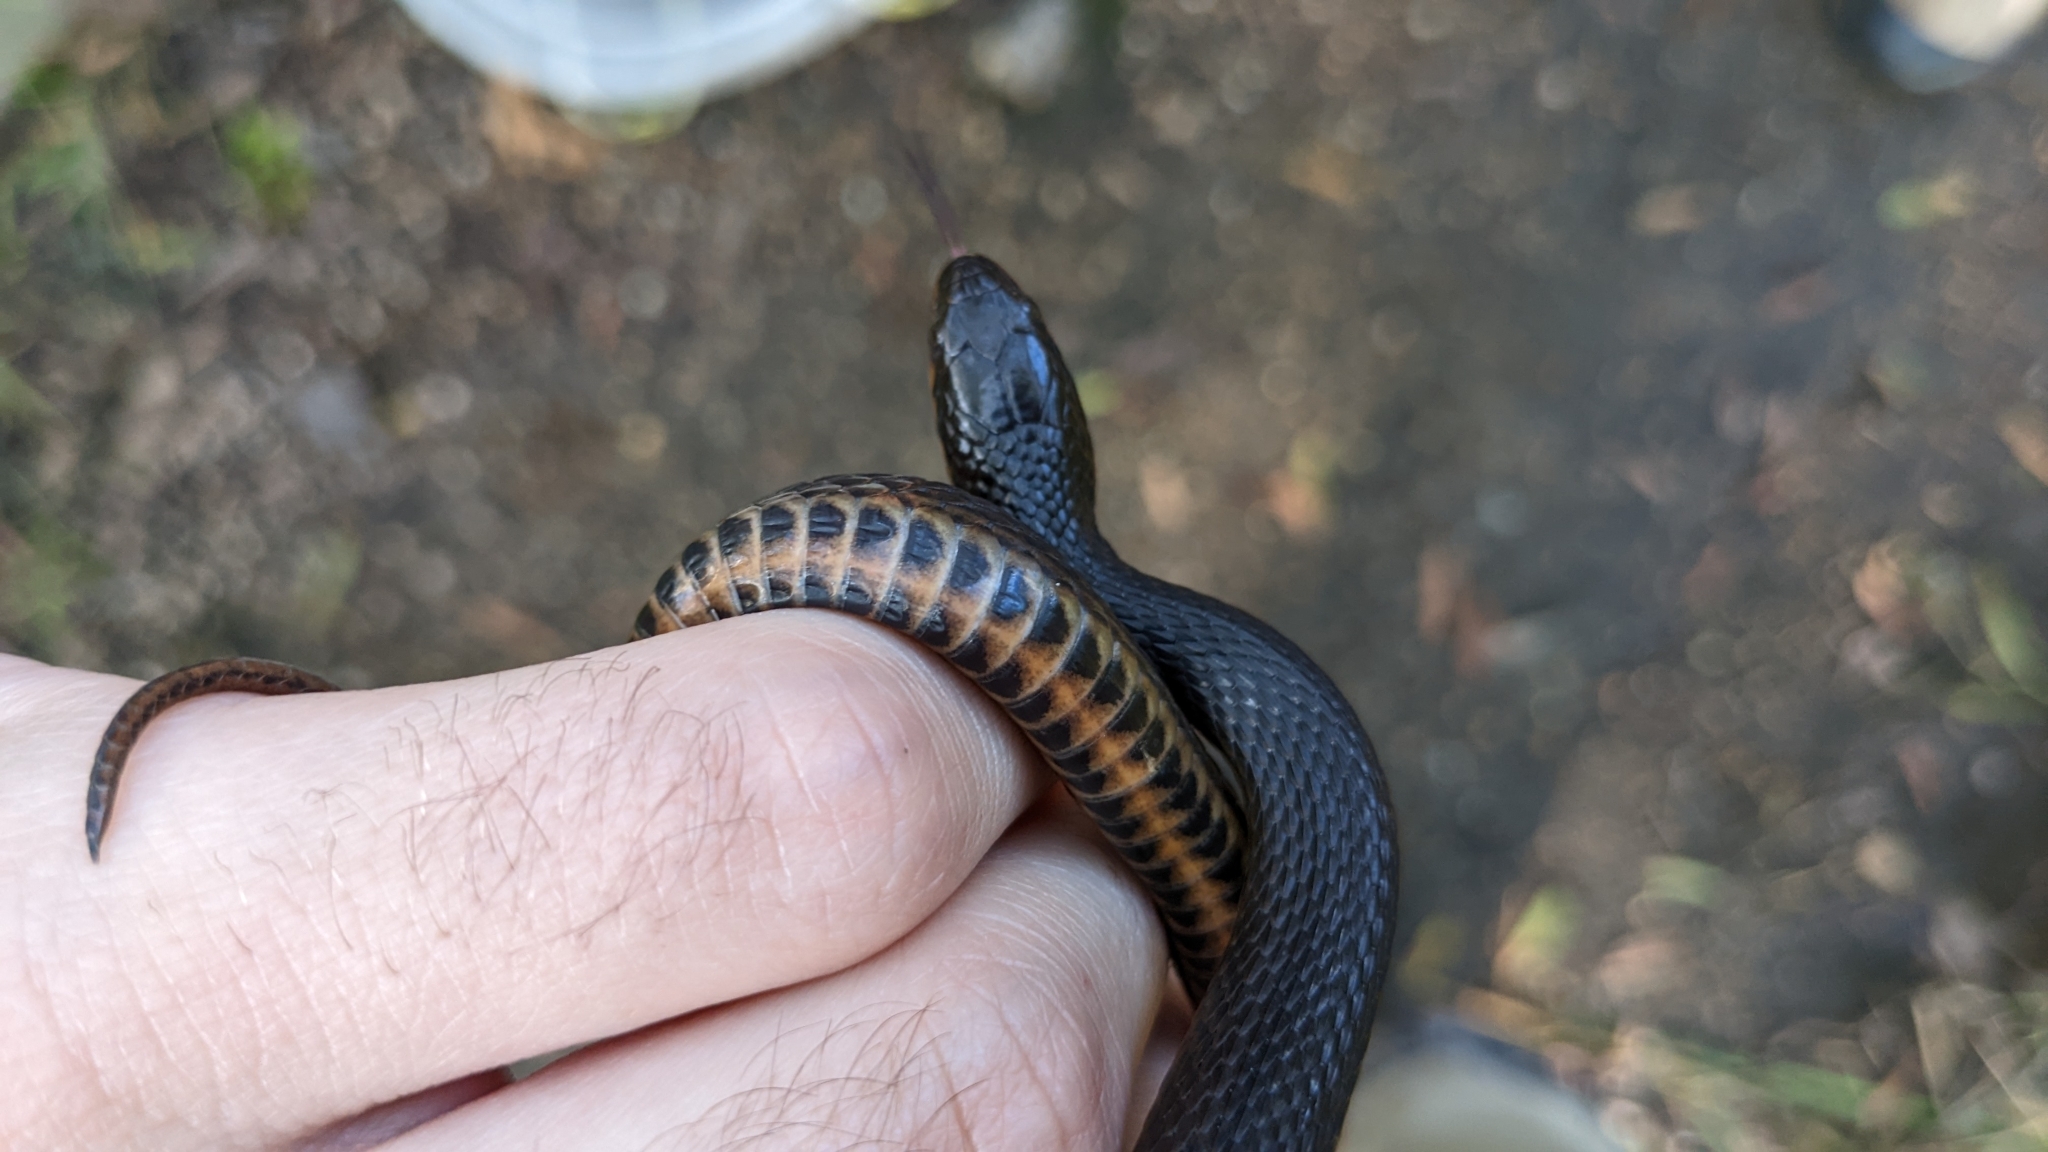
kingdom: Animalia
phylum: Chordata
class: Squamata
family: Colubridae
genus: Liodytes
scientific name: Liodytes rigida
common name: Crayfish snake
